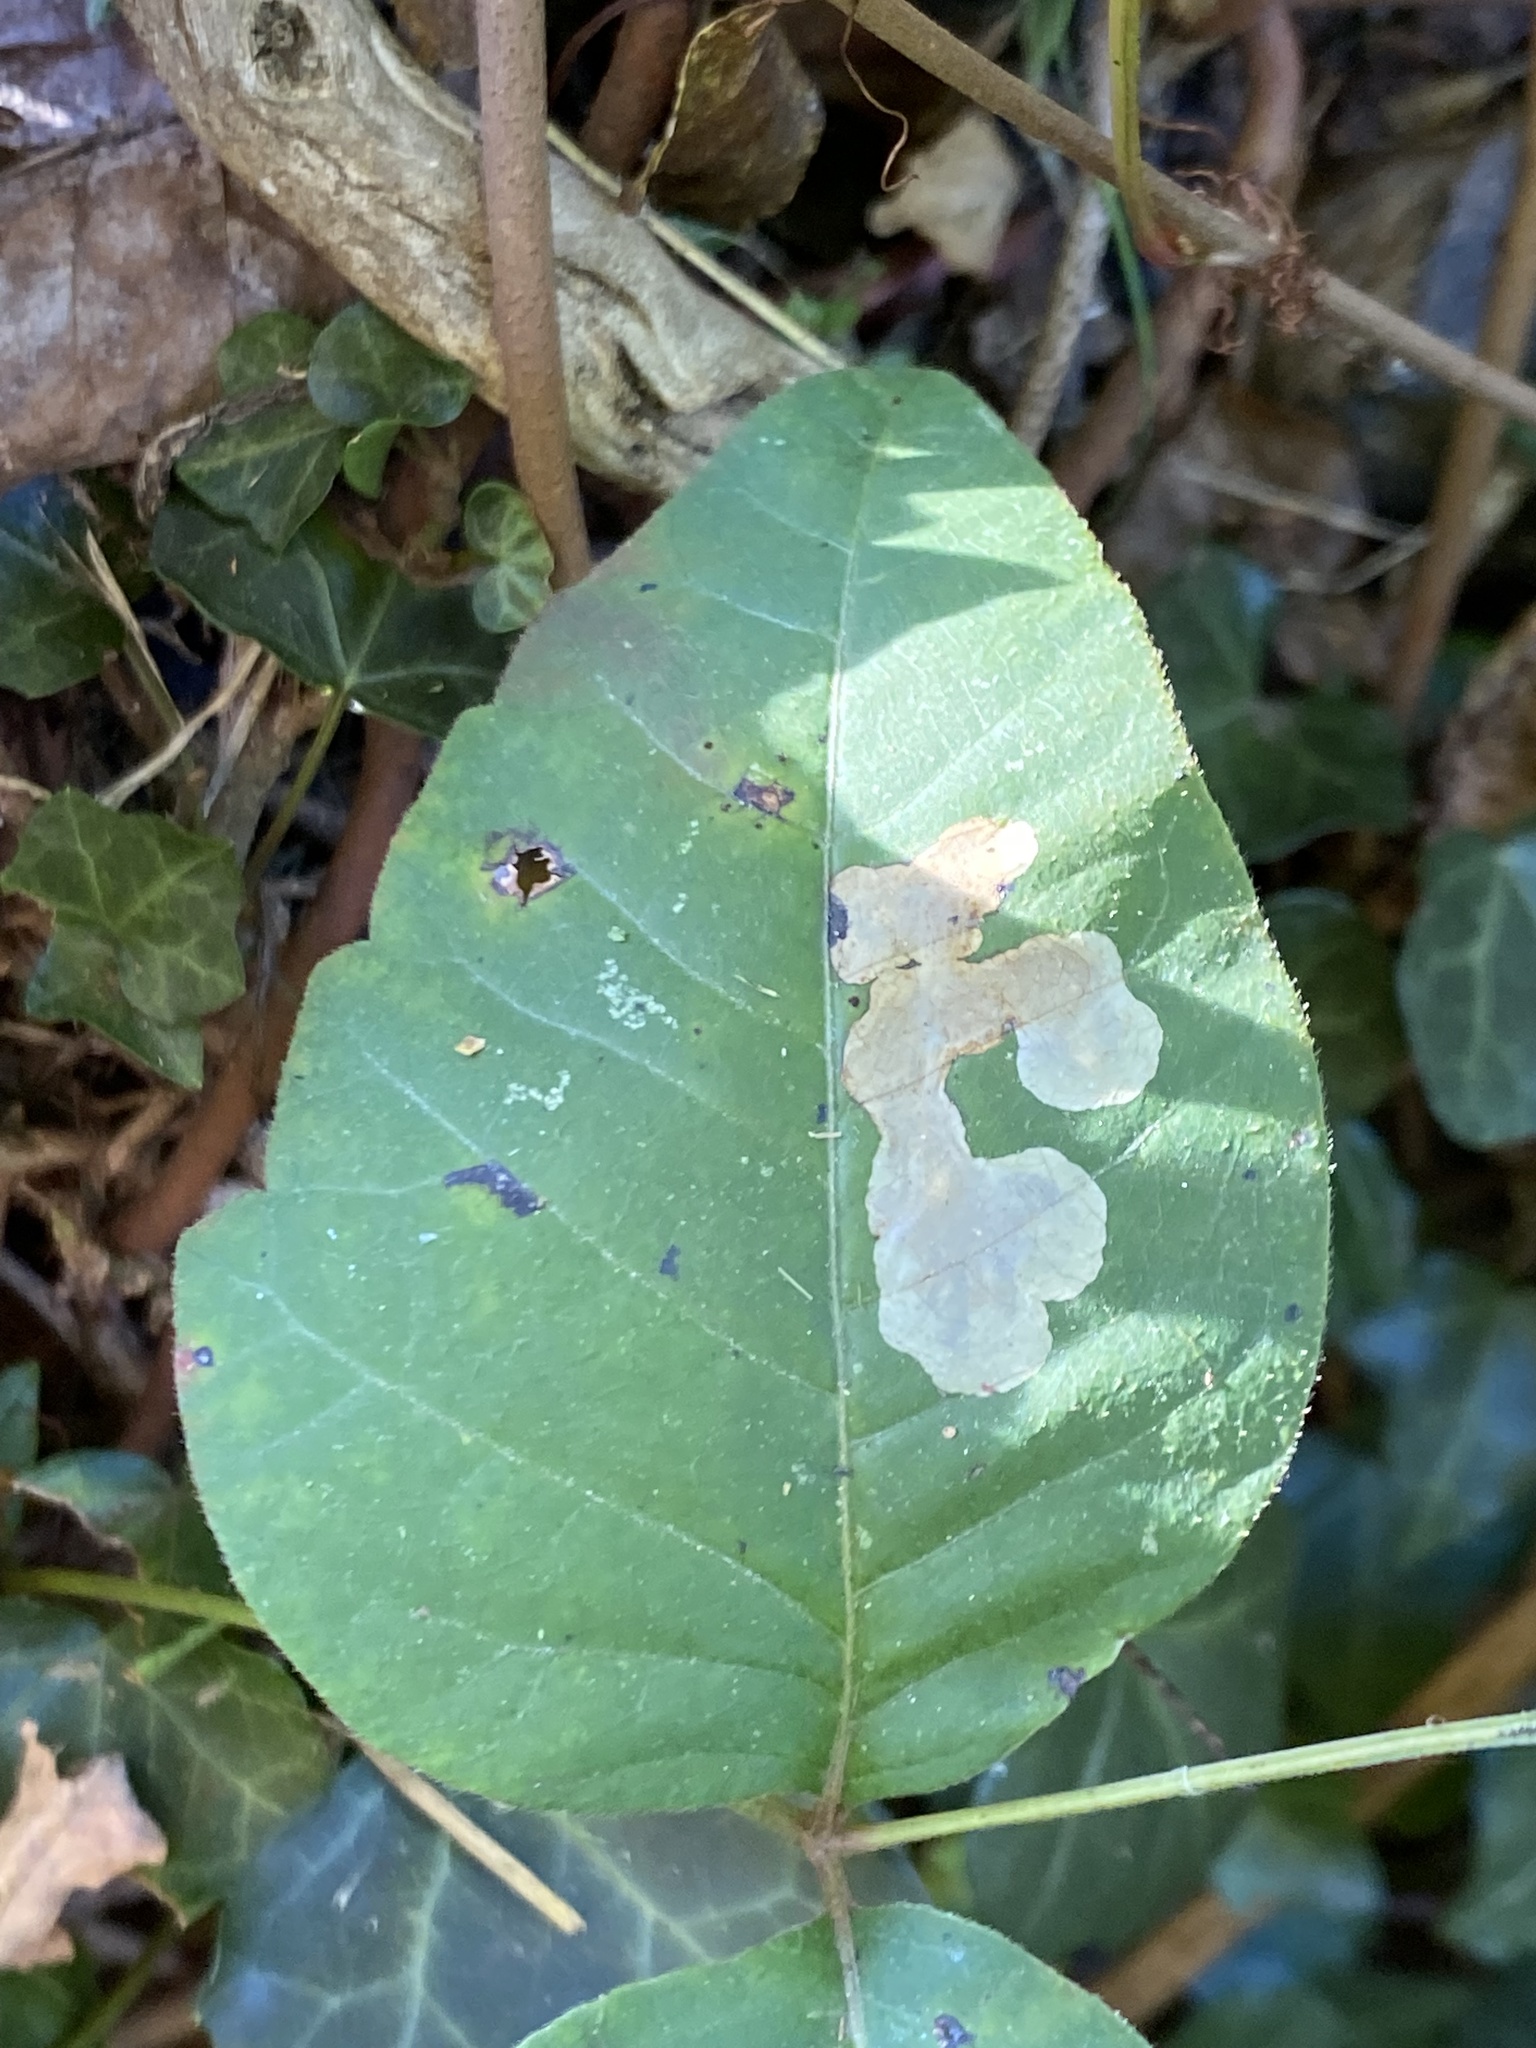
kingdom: Animalia
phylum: Arthropoda
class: Insecta
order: Lepidoptera
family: Gracillariidae
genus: Cameraria
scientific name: Cameraria guttifinitella
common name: Poison ivy leaf-miner moth
